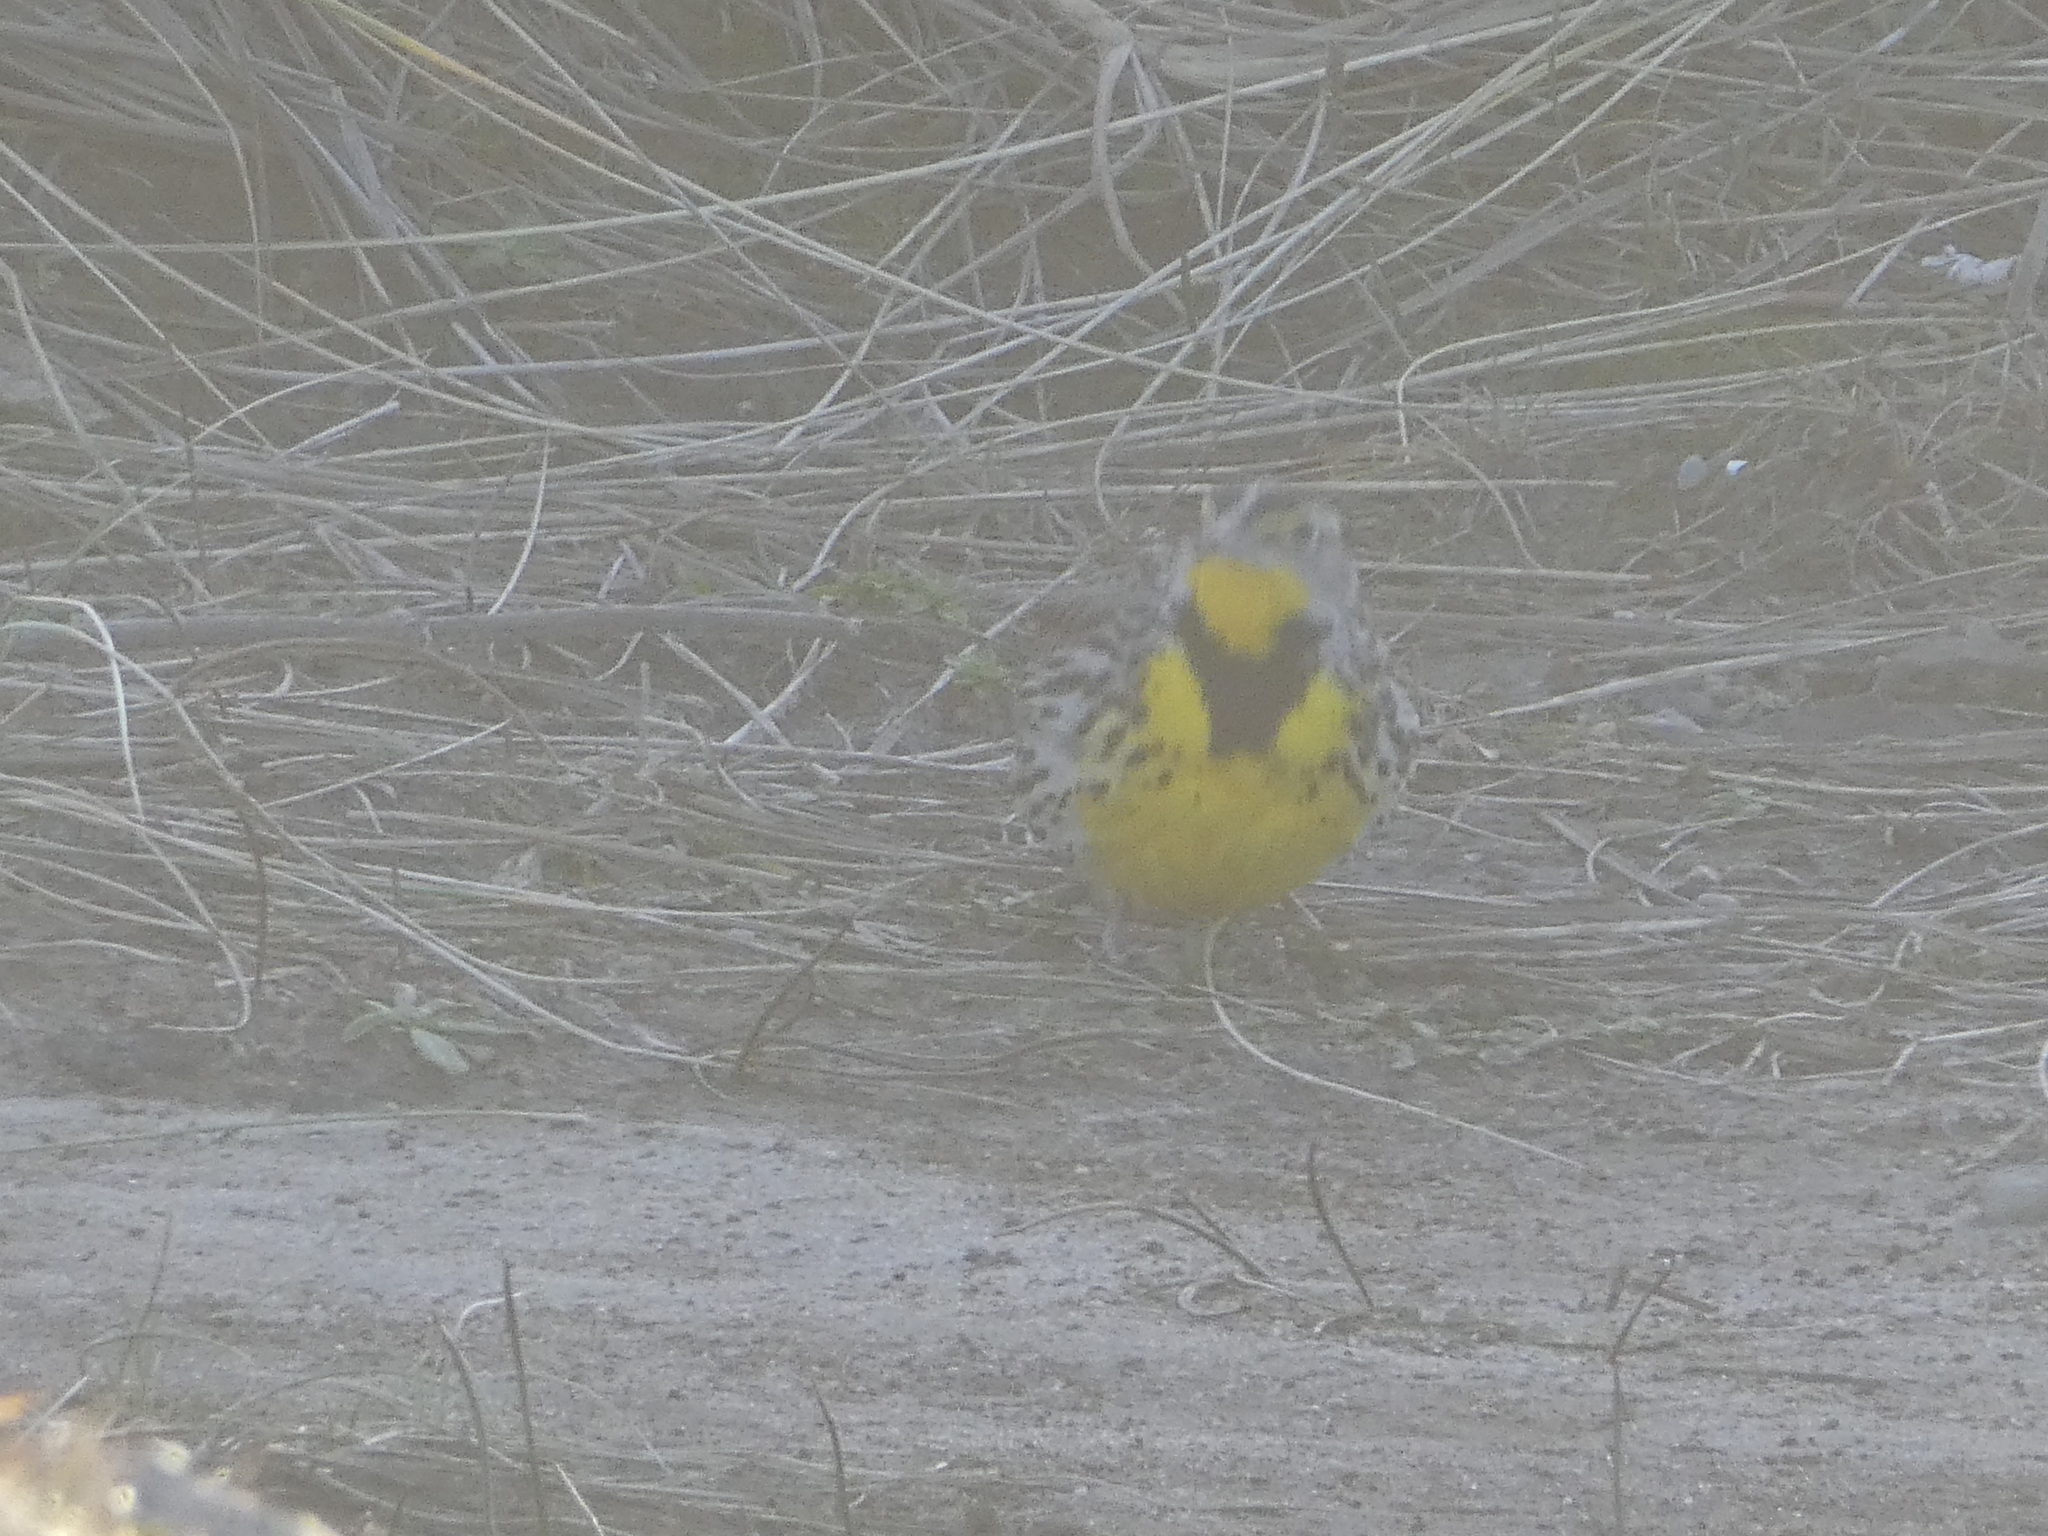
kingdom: Animalia
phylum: Chordata
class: Aves
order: Passeriformes
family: Icteridae
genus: Sturnella
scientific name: Sturnella neglecta
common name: Western meadowlark
